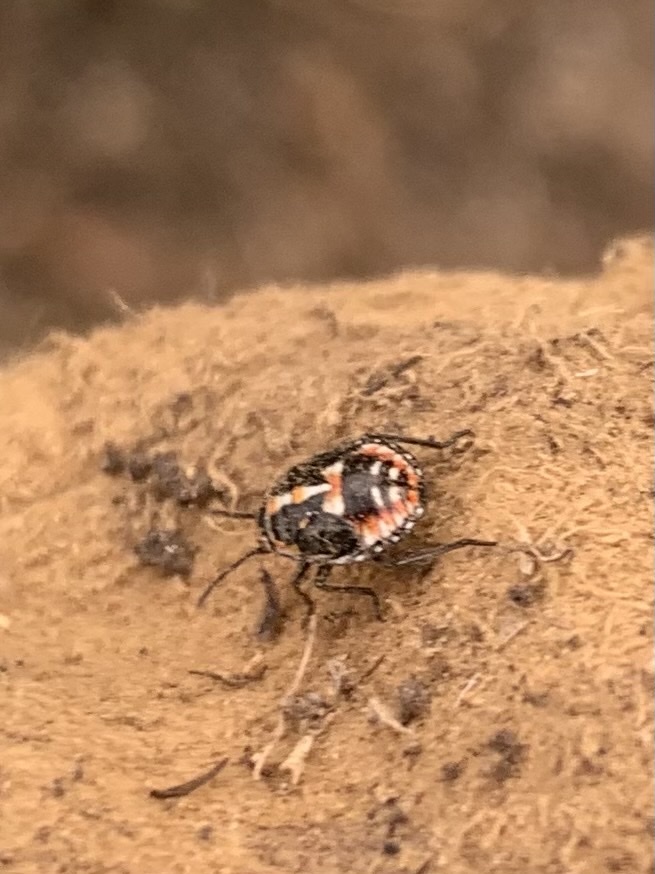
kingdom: Animalia
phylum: Arthropoda
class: Insecta
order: Hemiptera
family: Pentatomidae
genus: Bagrada
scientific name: Bagrada hilaris
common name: Bagrada bug
